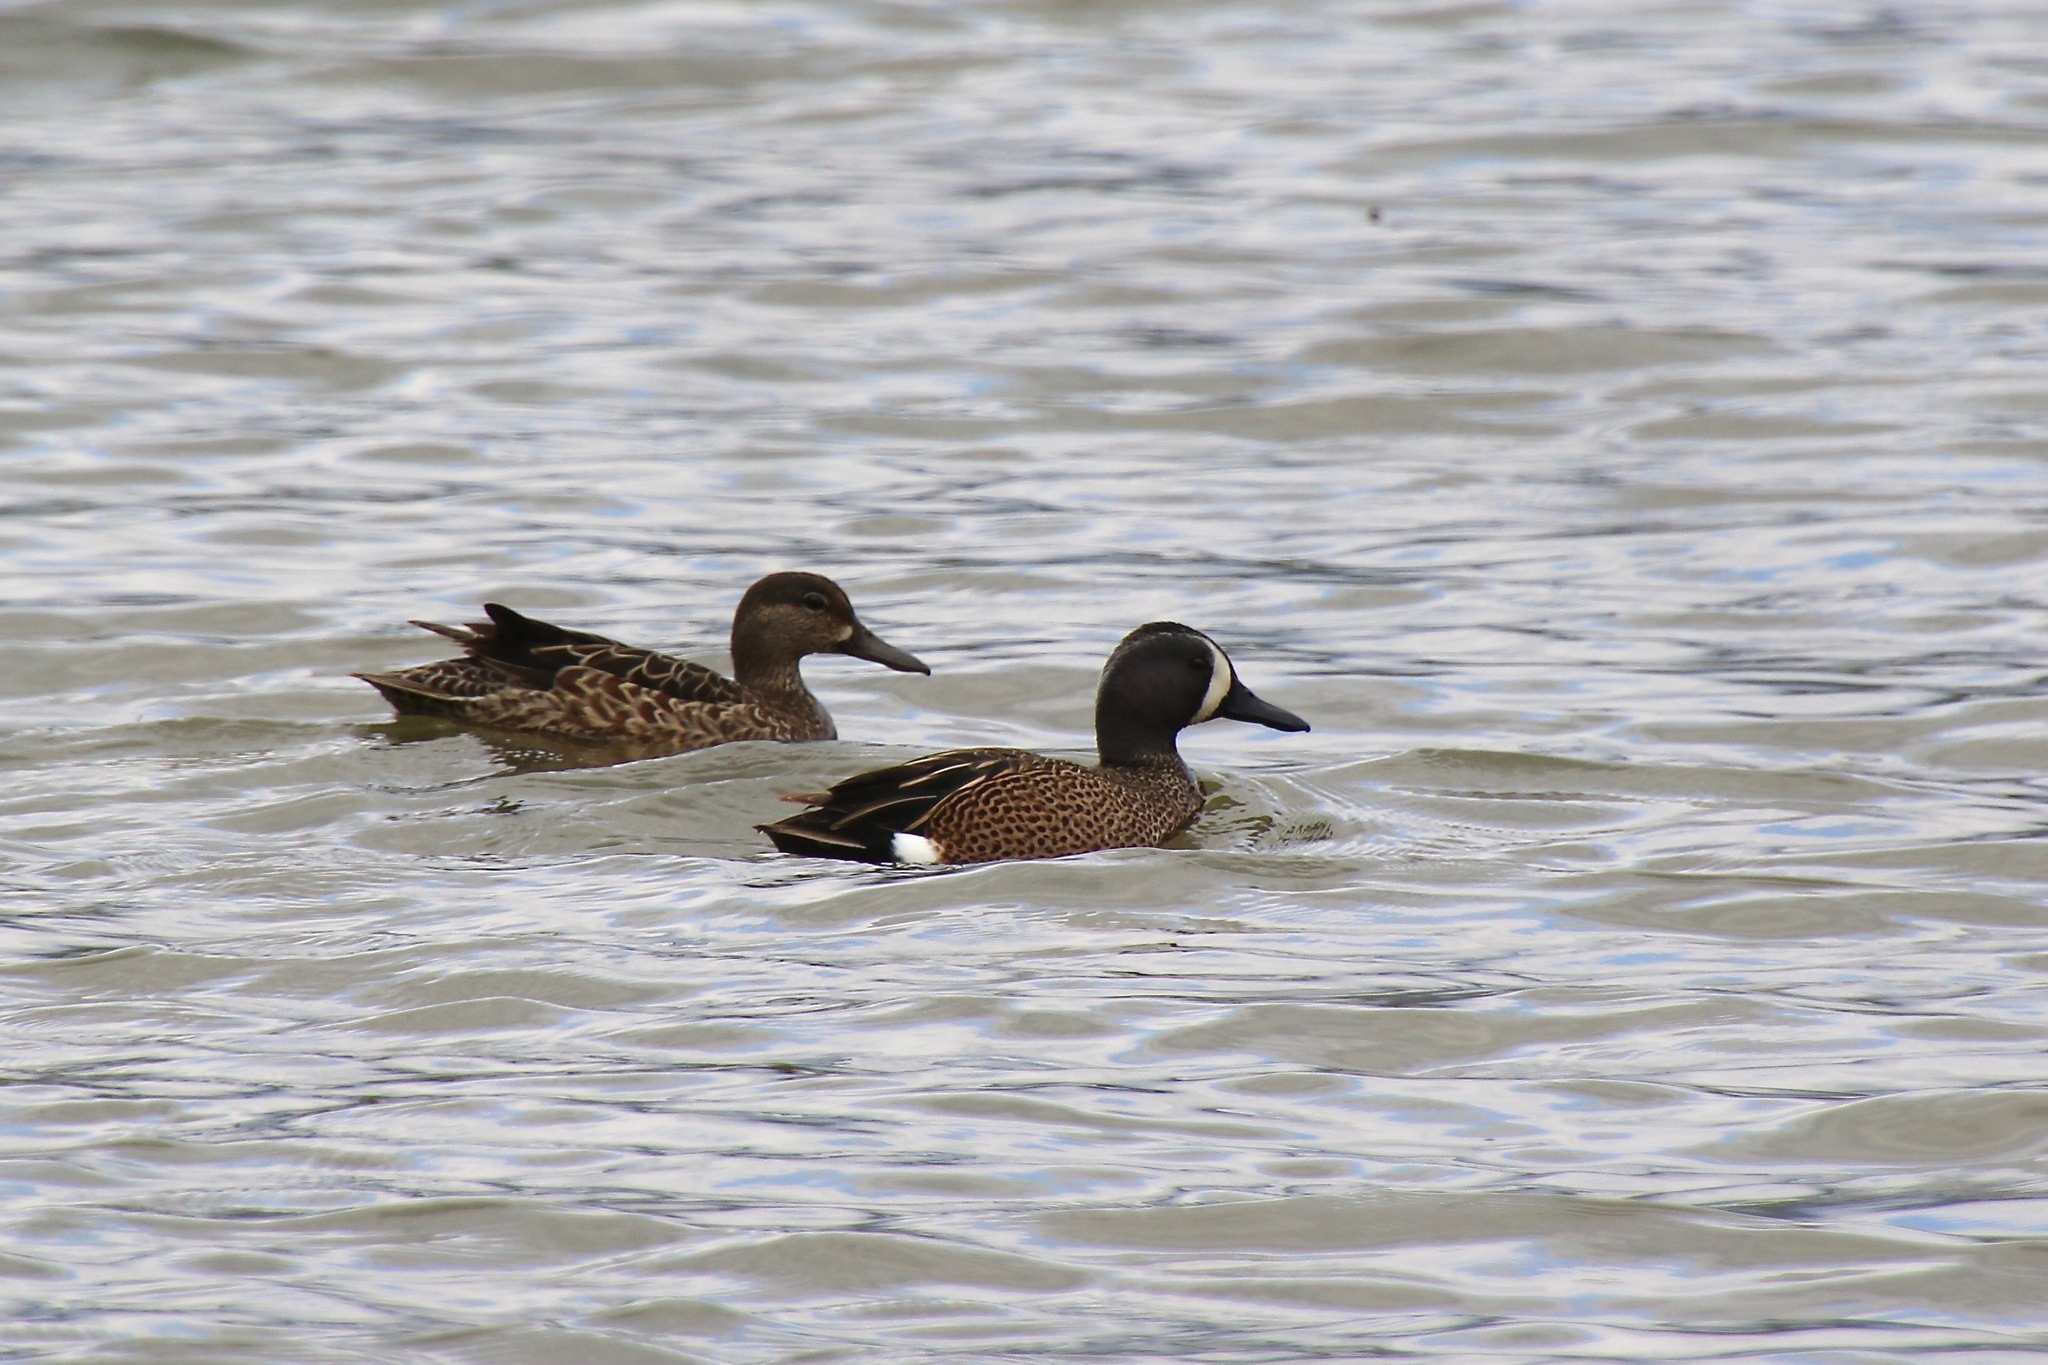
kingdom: Animalia
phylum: Chordata
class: Aves
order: Anseriformes
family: Anatidae
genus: Spatula
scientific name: Spatula discors
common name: Blue-winged teal
